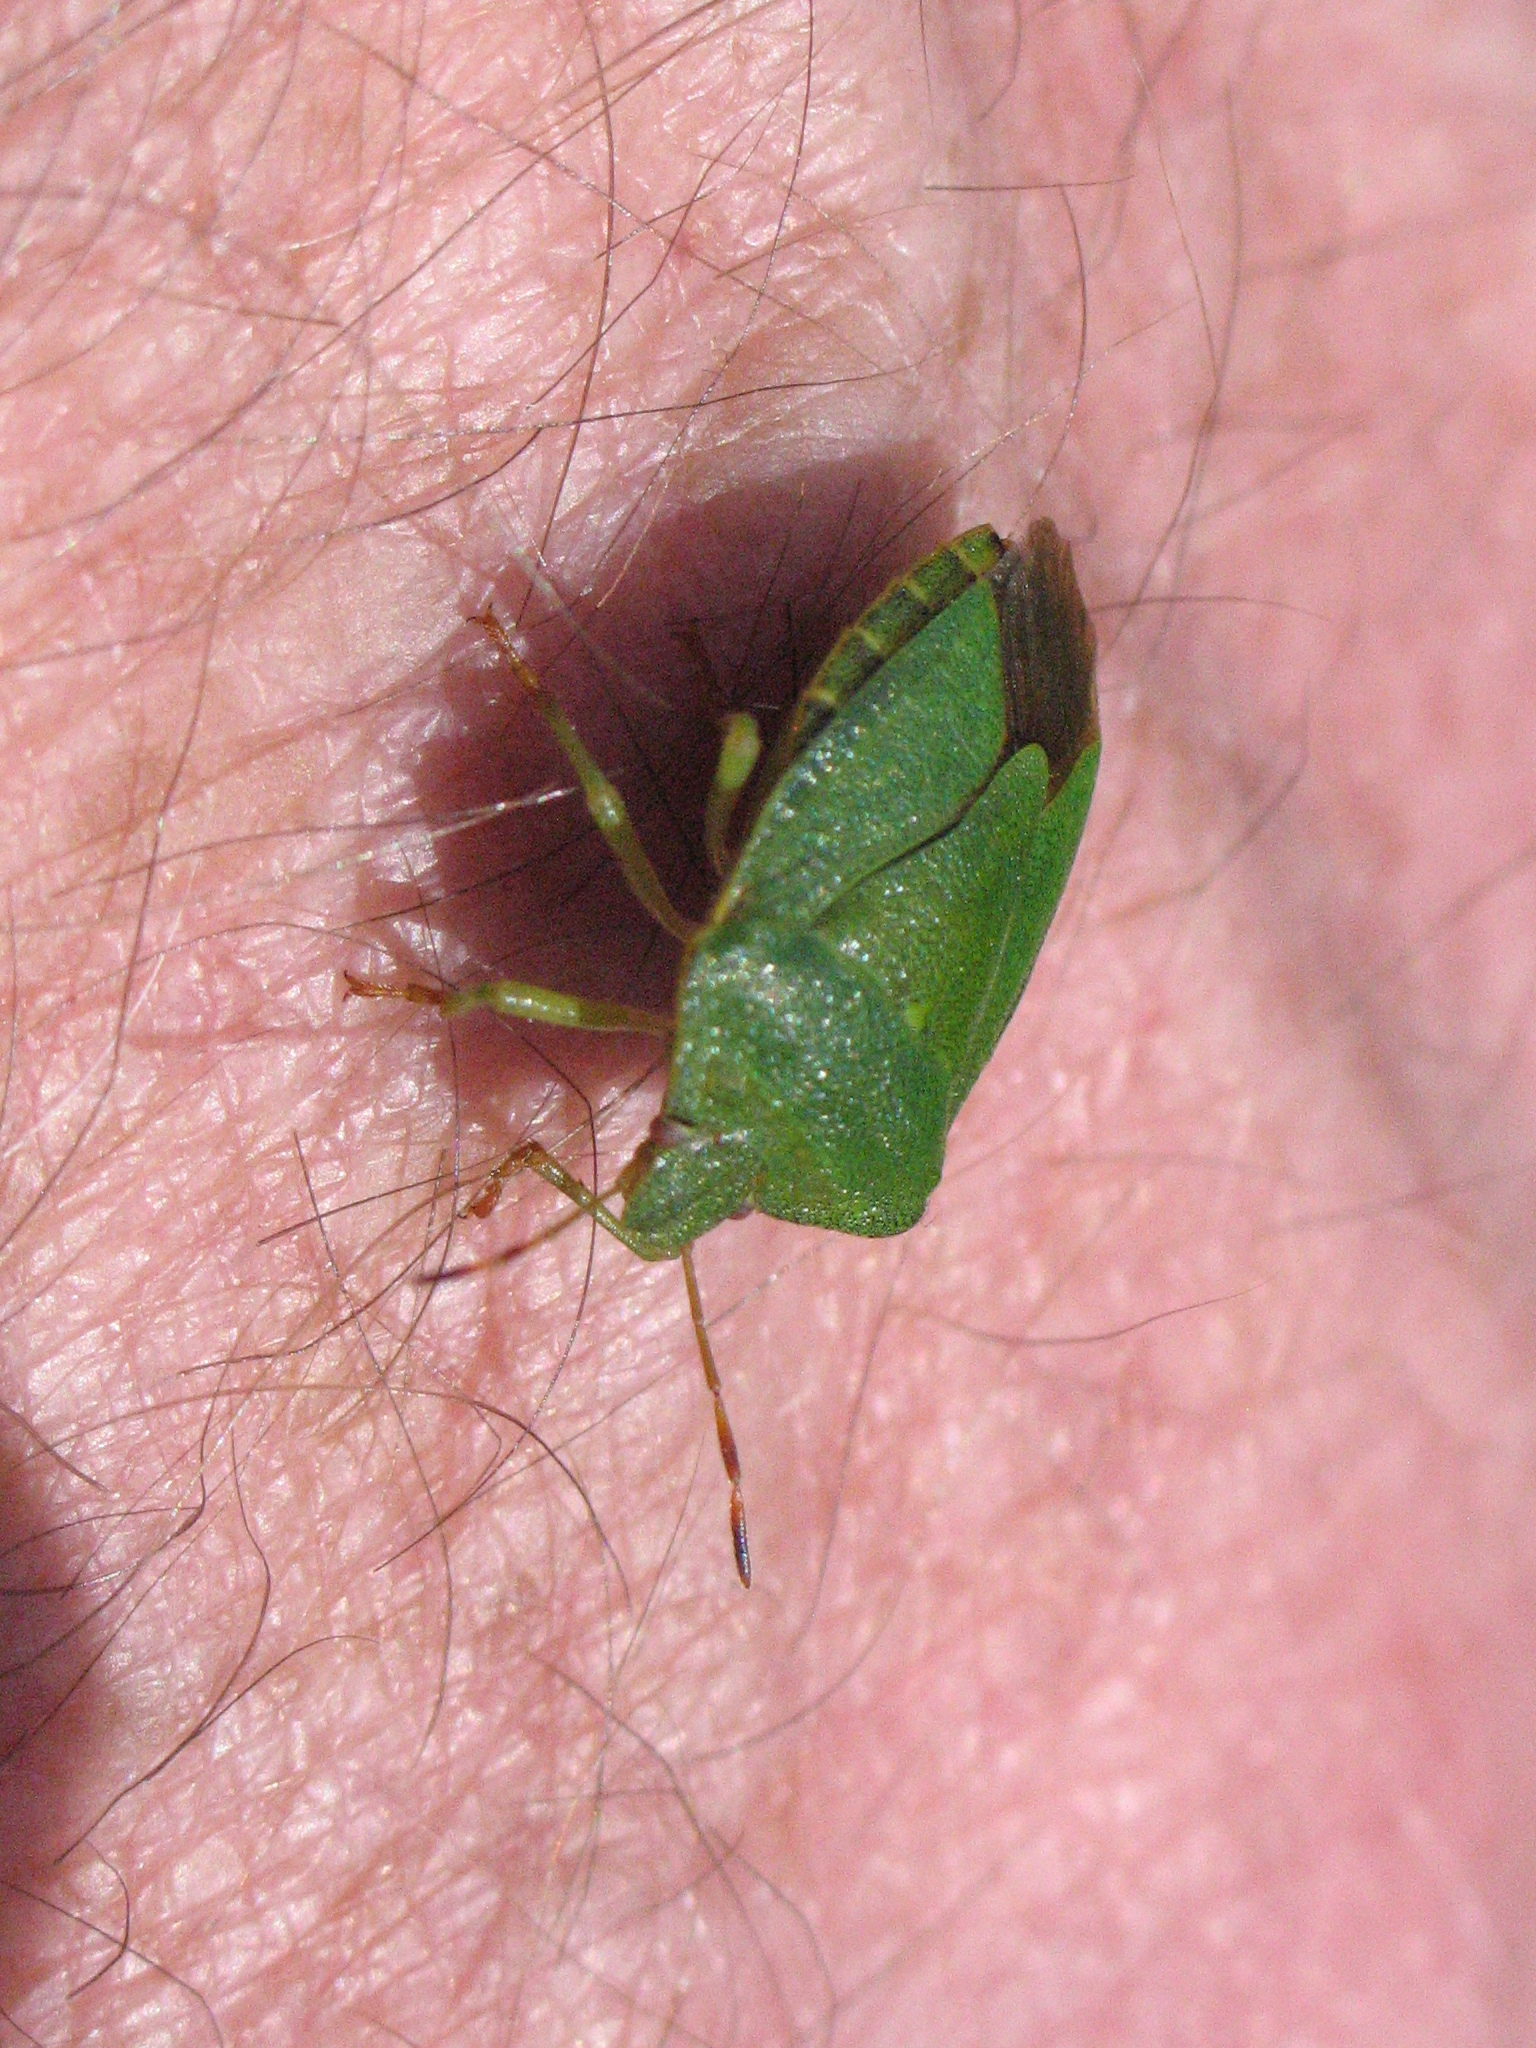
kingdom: Animalia
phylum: Arthropoda
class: Insecta
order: Hemiptera
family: Pentatomidae
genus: Palomena
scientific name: Palomena prasina
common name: Green shieldbug
